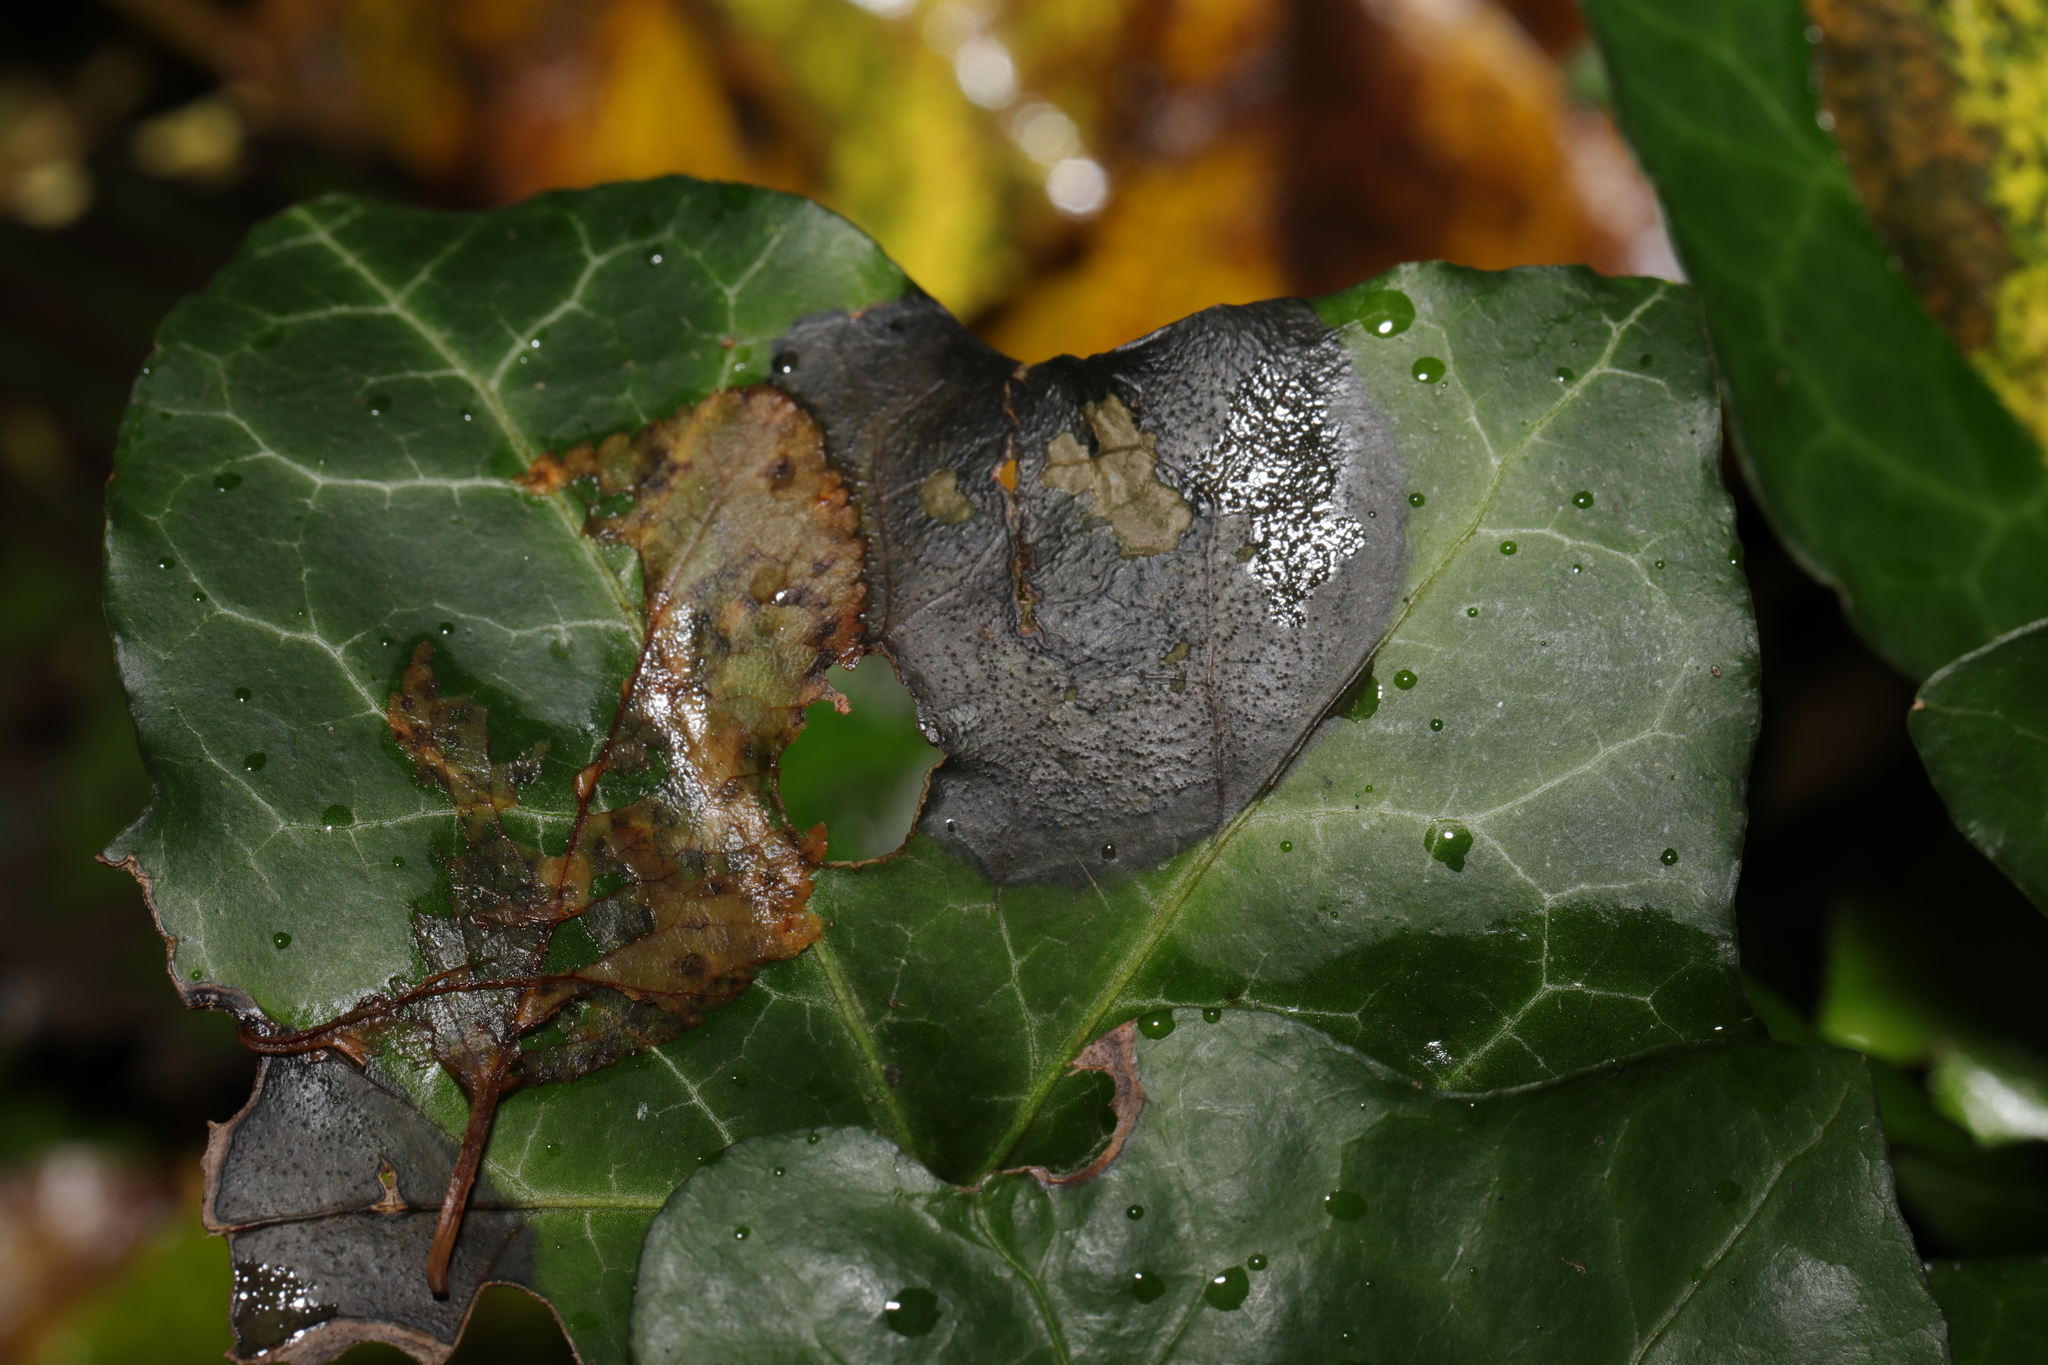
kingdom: Fungi
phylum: Ascomycota
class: Dothideomycetes
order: Pleosporales
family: Didymellaceae
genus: Boeremia
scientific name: Boeremia hedericola
